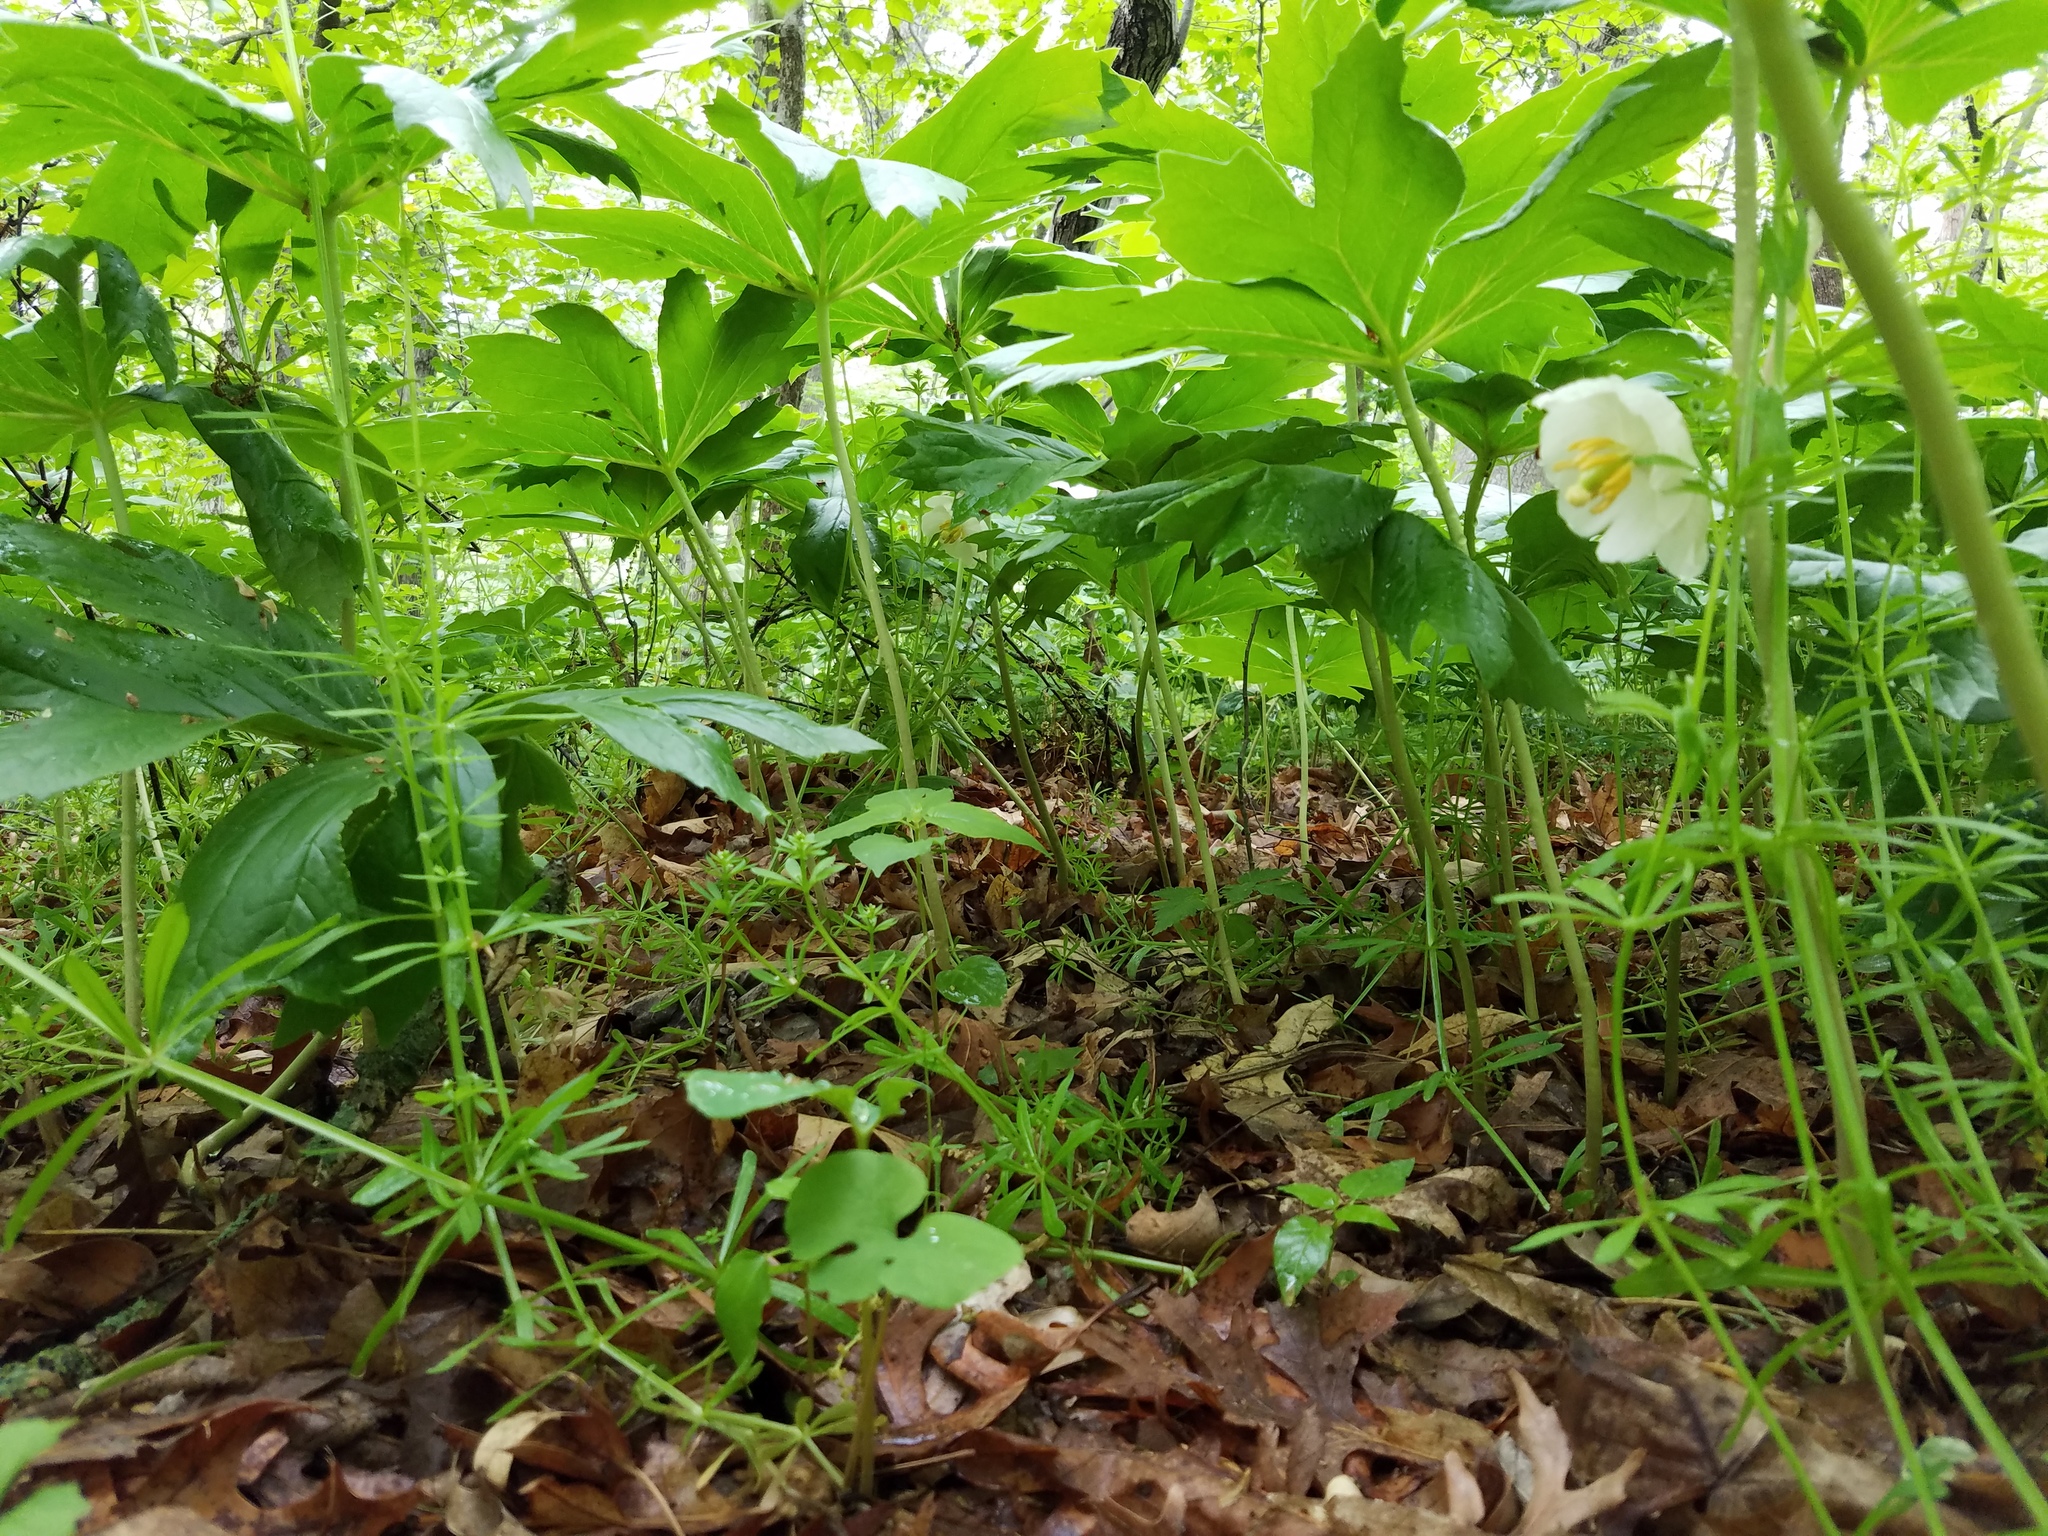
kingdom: Plantae
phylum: Tracheophyta
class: Magnoliopsida
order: Ranunculales
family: Berberidaceae
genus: Podophyllum
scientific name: Podophyllum peltatum
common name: Wild mandrake
